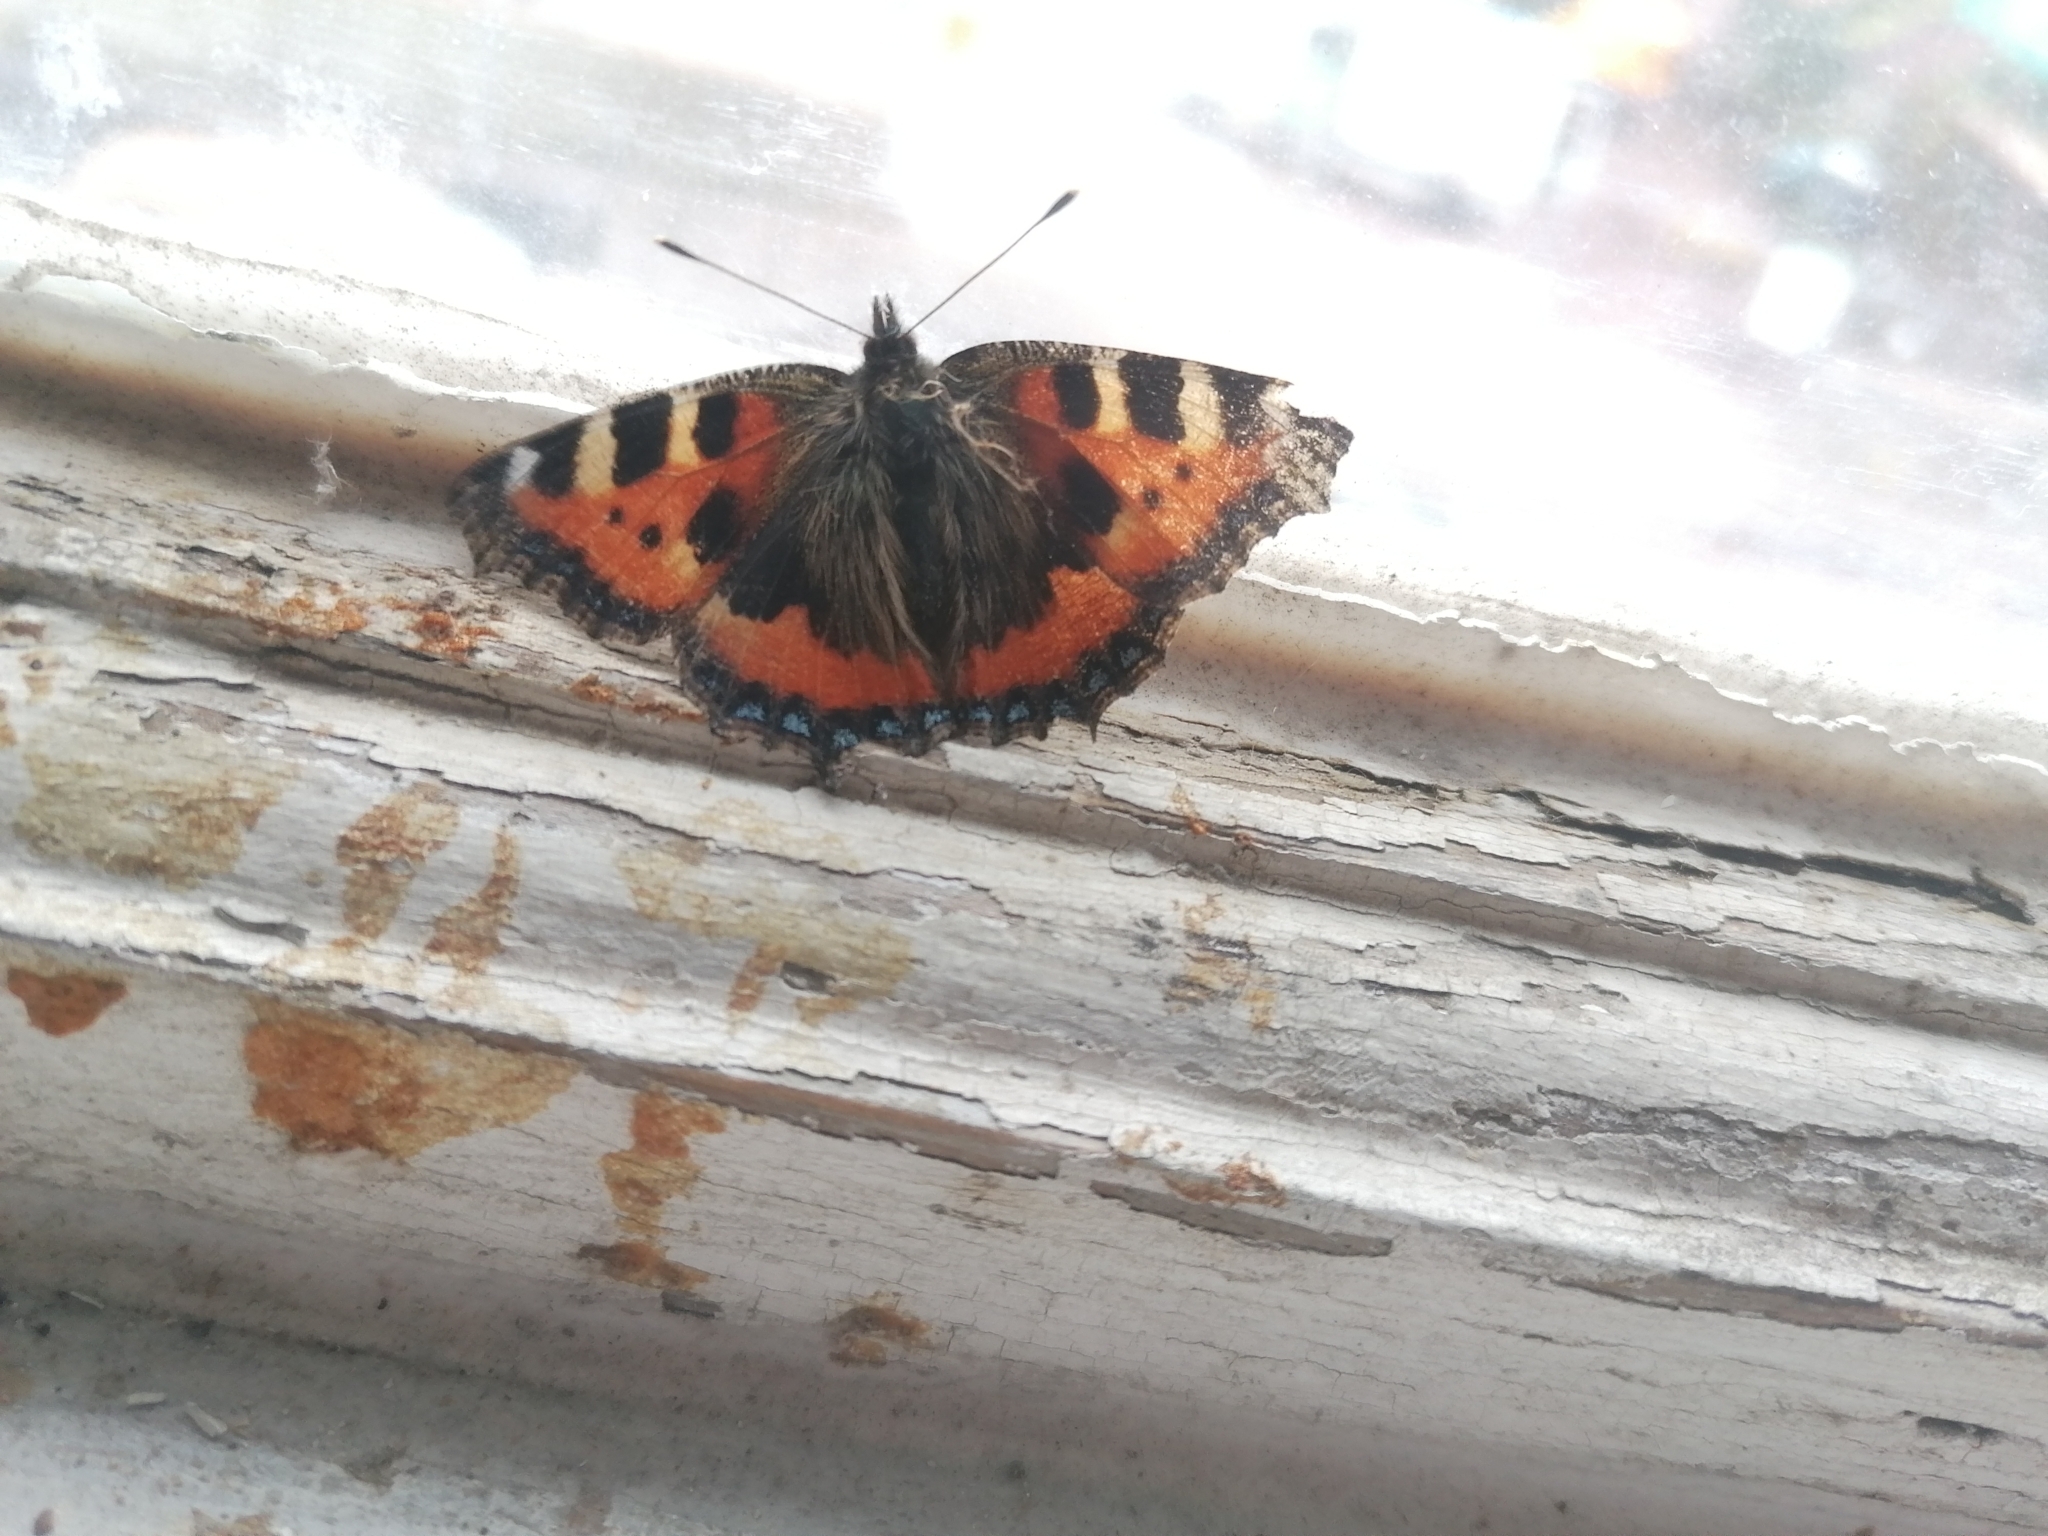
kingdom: Animalia
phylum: Arthropoda
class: Insecta
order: Lepidoptera
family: Nymphalidae
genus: Aglais
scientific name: Aglais urticae
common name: Small tortoiseshell
